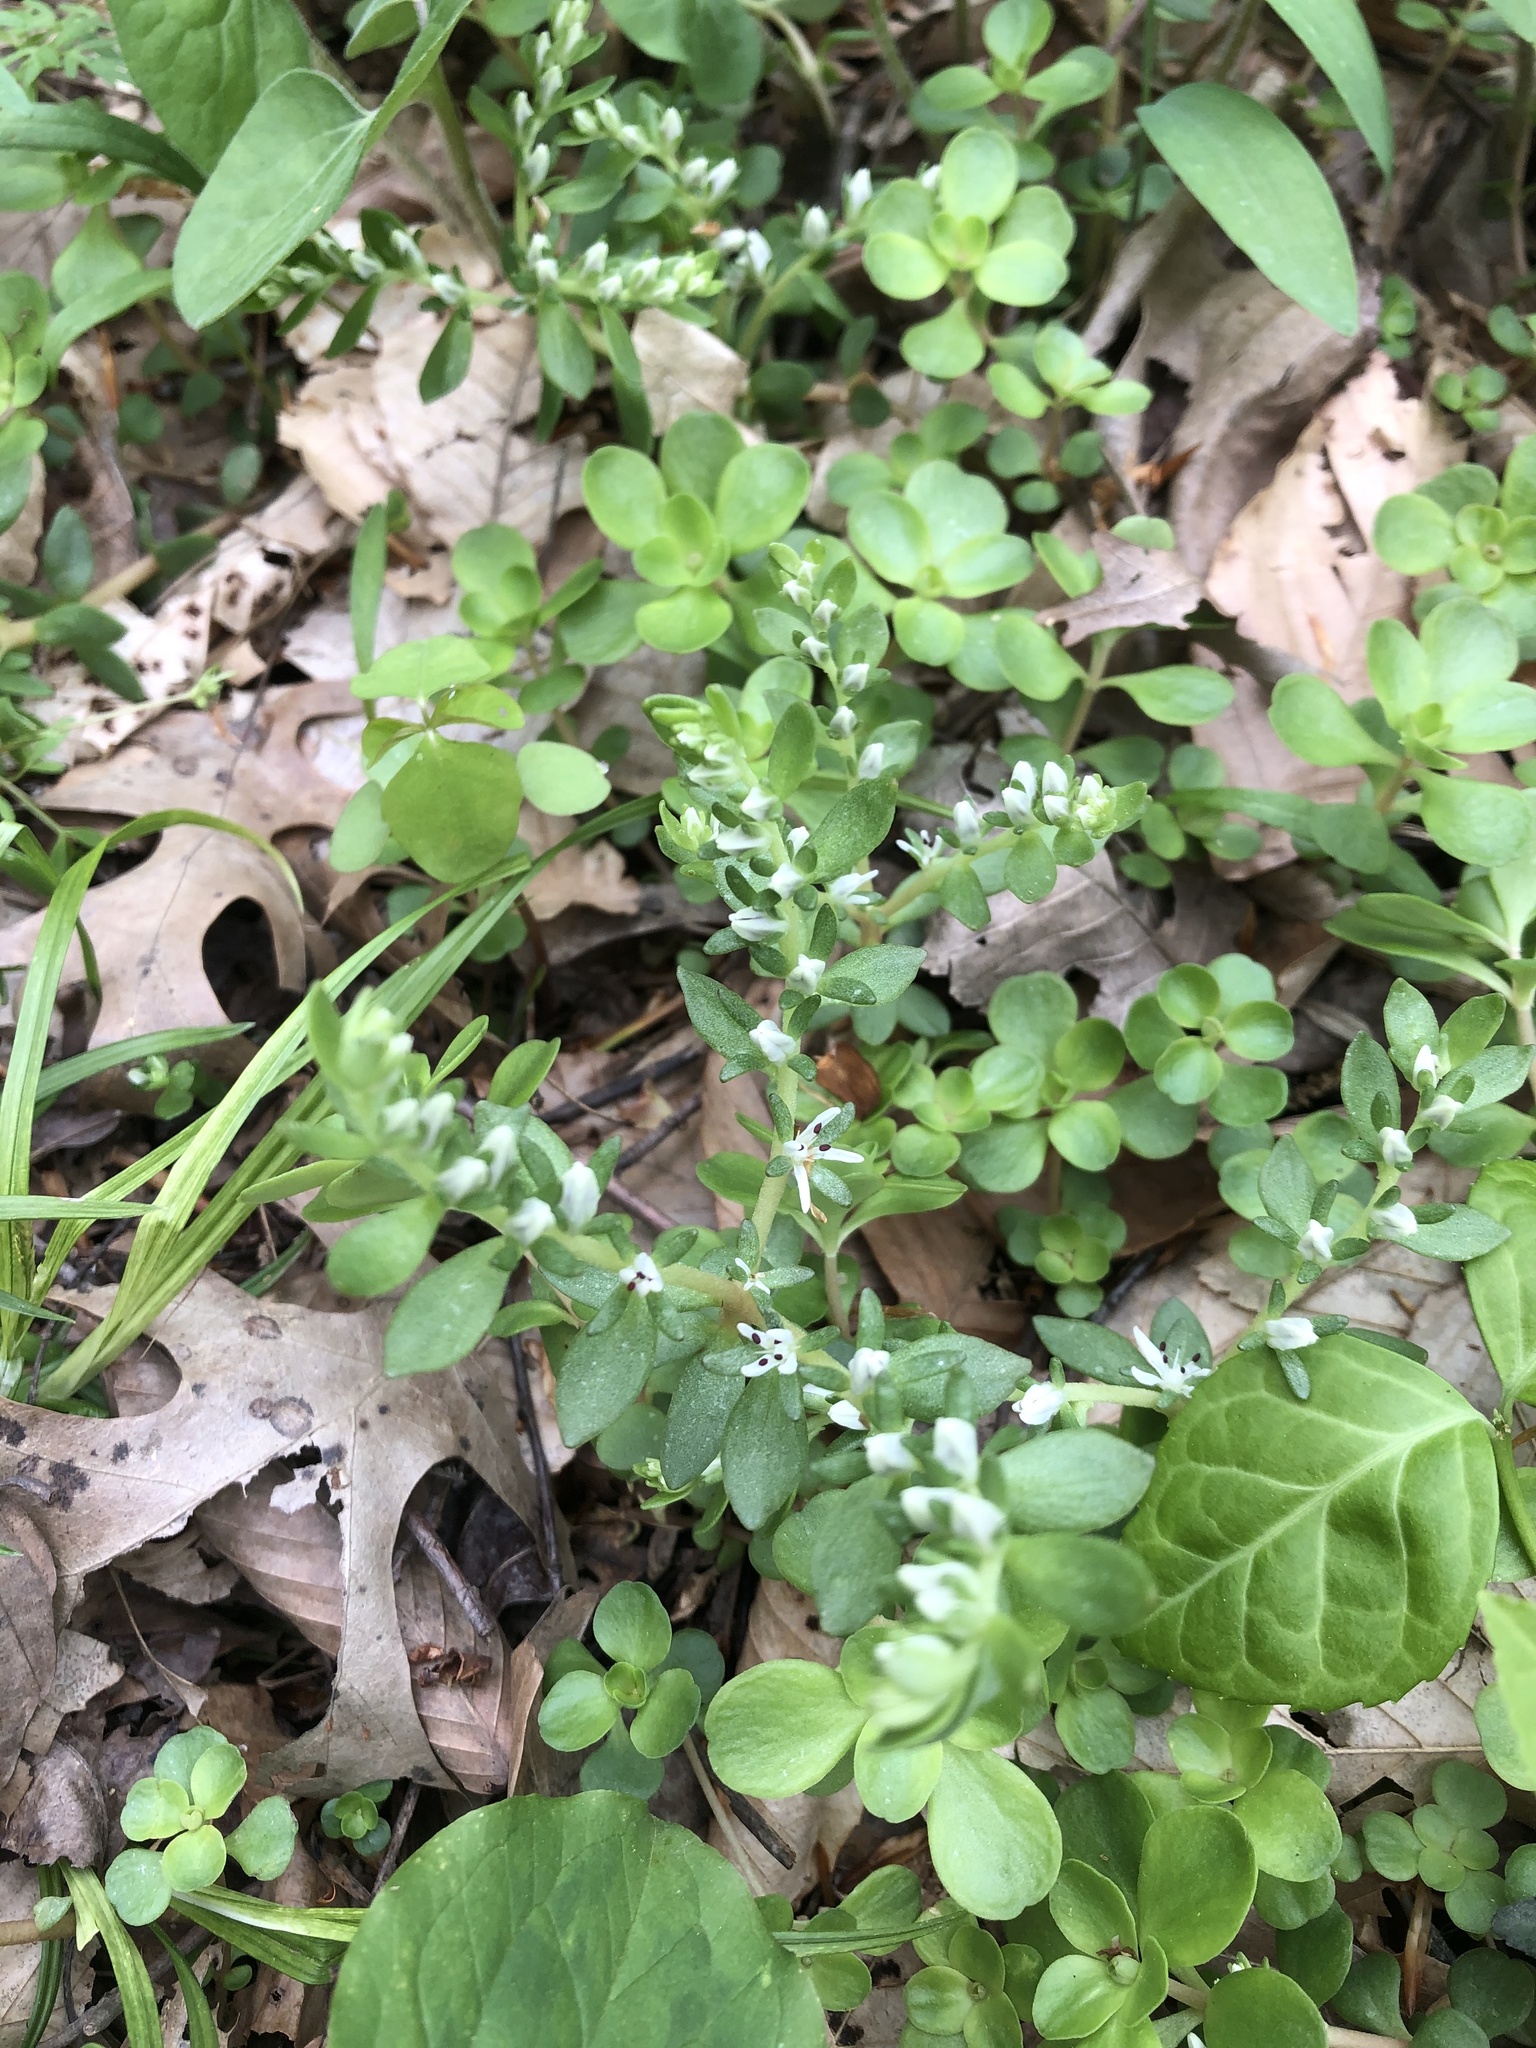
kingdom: Plantae
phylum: Tracheophyta
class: Magnoliopsida
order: Saxifragales
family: Crassulaceae
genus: Sedum
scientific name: Sedum ternatum
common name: Wild stonecrop
